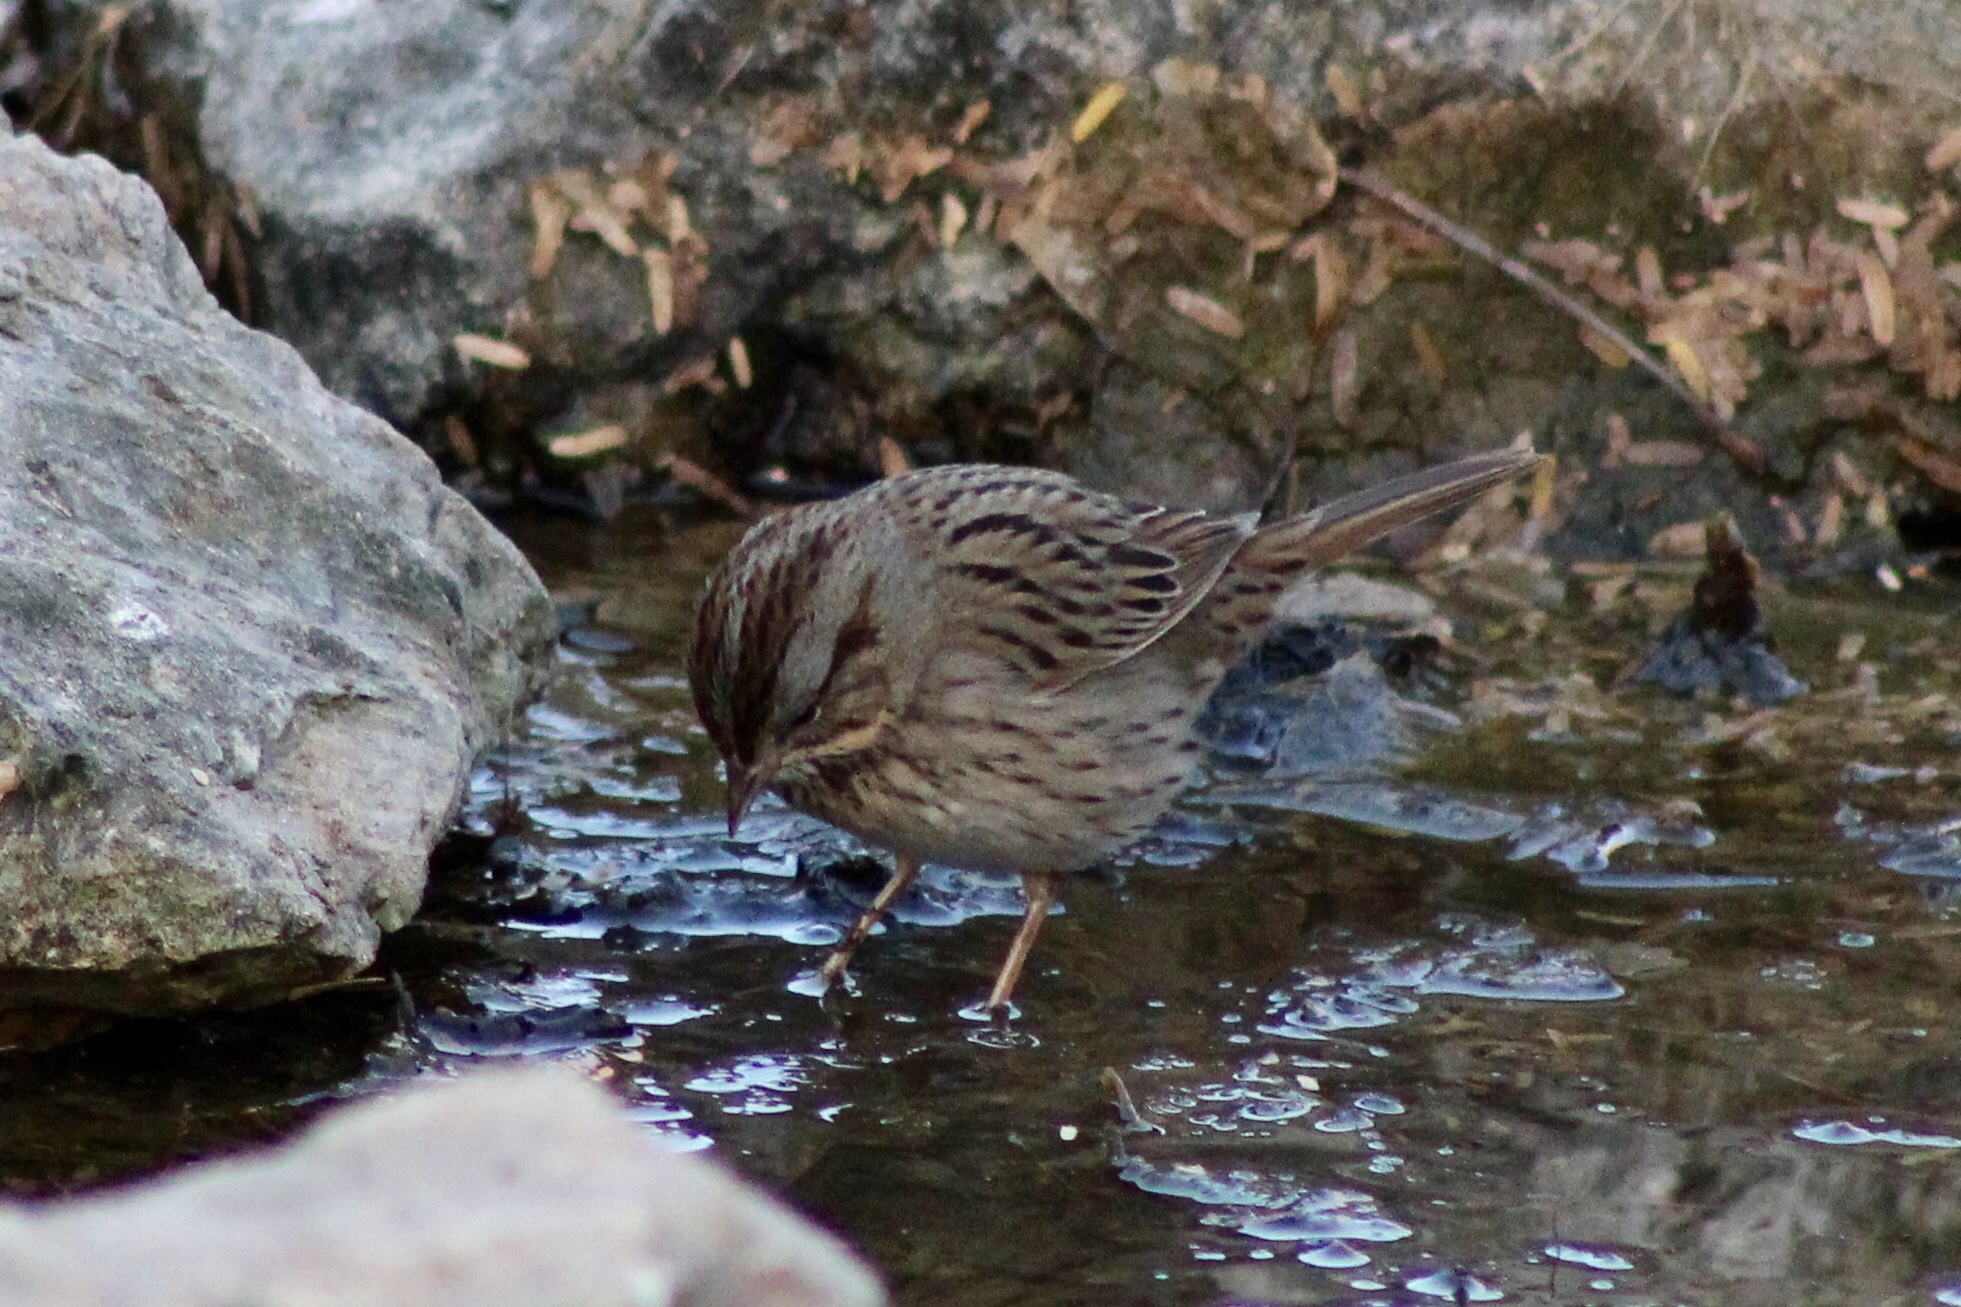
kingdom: Animalia
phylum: Chordata
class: Aves
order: Passeriformes
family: Passerellidae
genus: Melospiza
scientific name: Melospiza lincolnii
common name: Lincoln's sparrow
